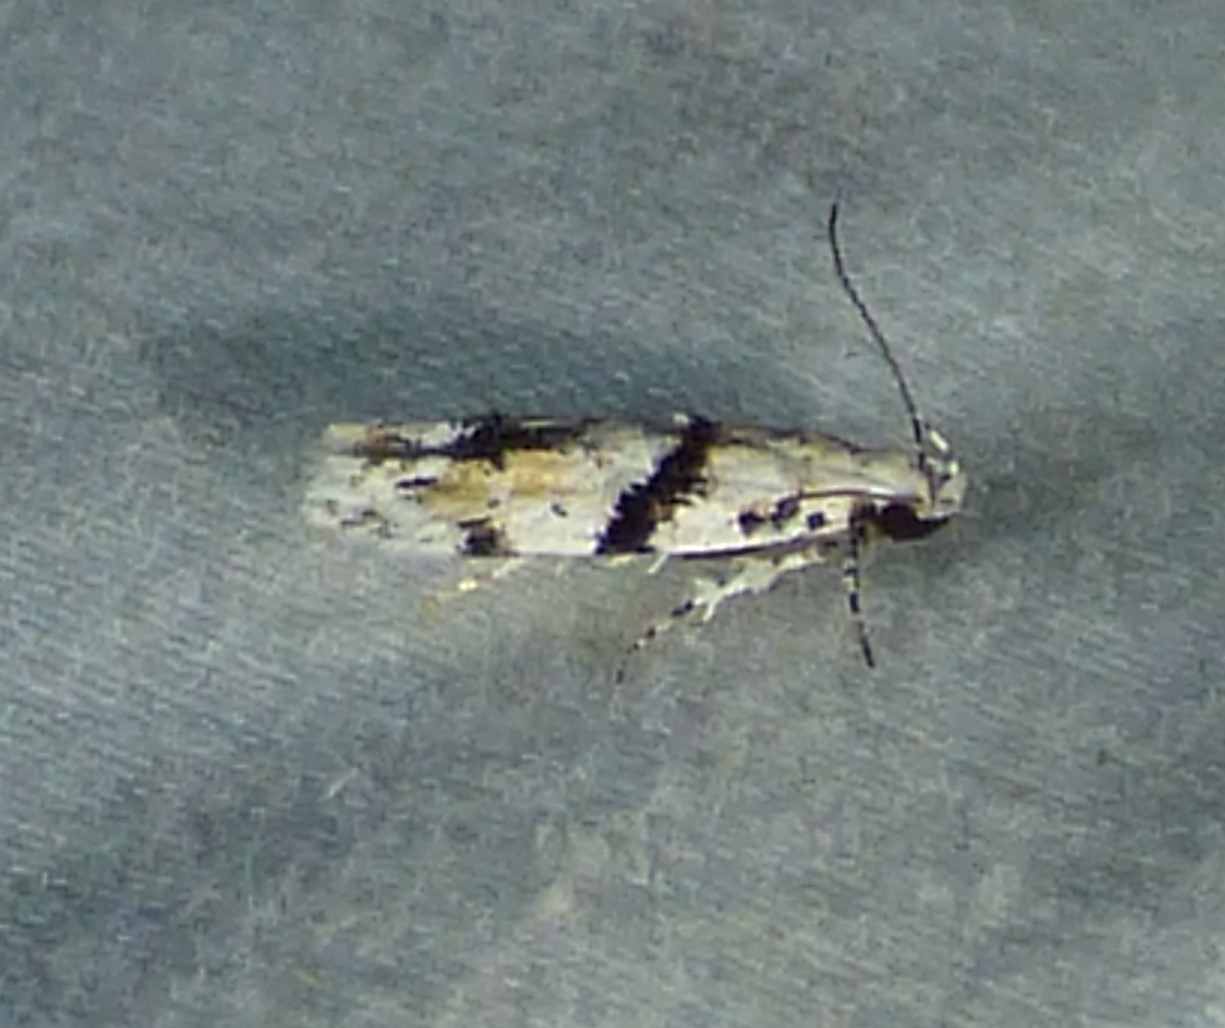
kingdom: Animalia
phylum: Arthropoda
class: Insecta
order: Lepidoptera
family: Gelechiidae
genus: Arogalea
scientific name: Arogalea cristifasciella
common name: White stripe-backed moth
